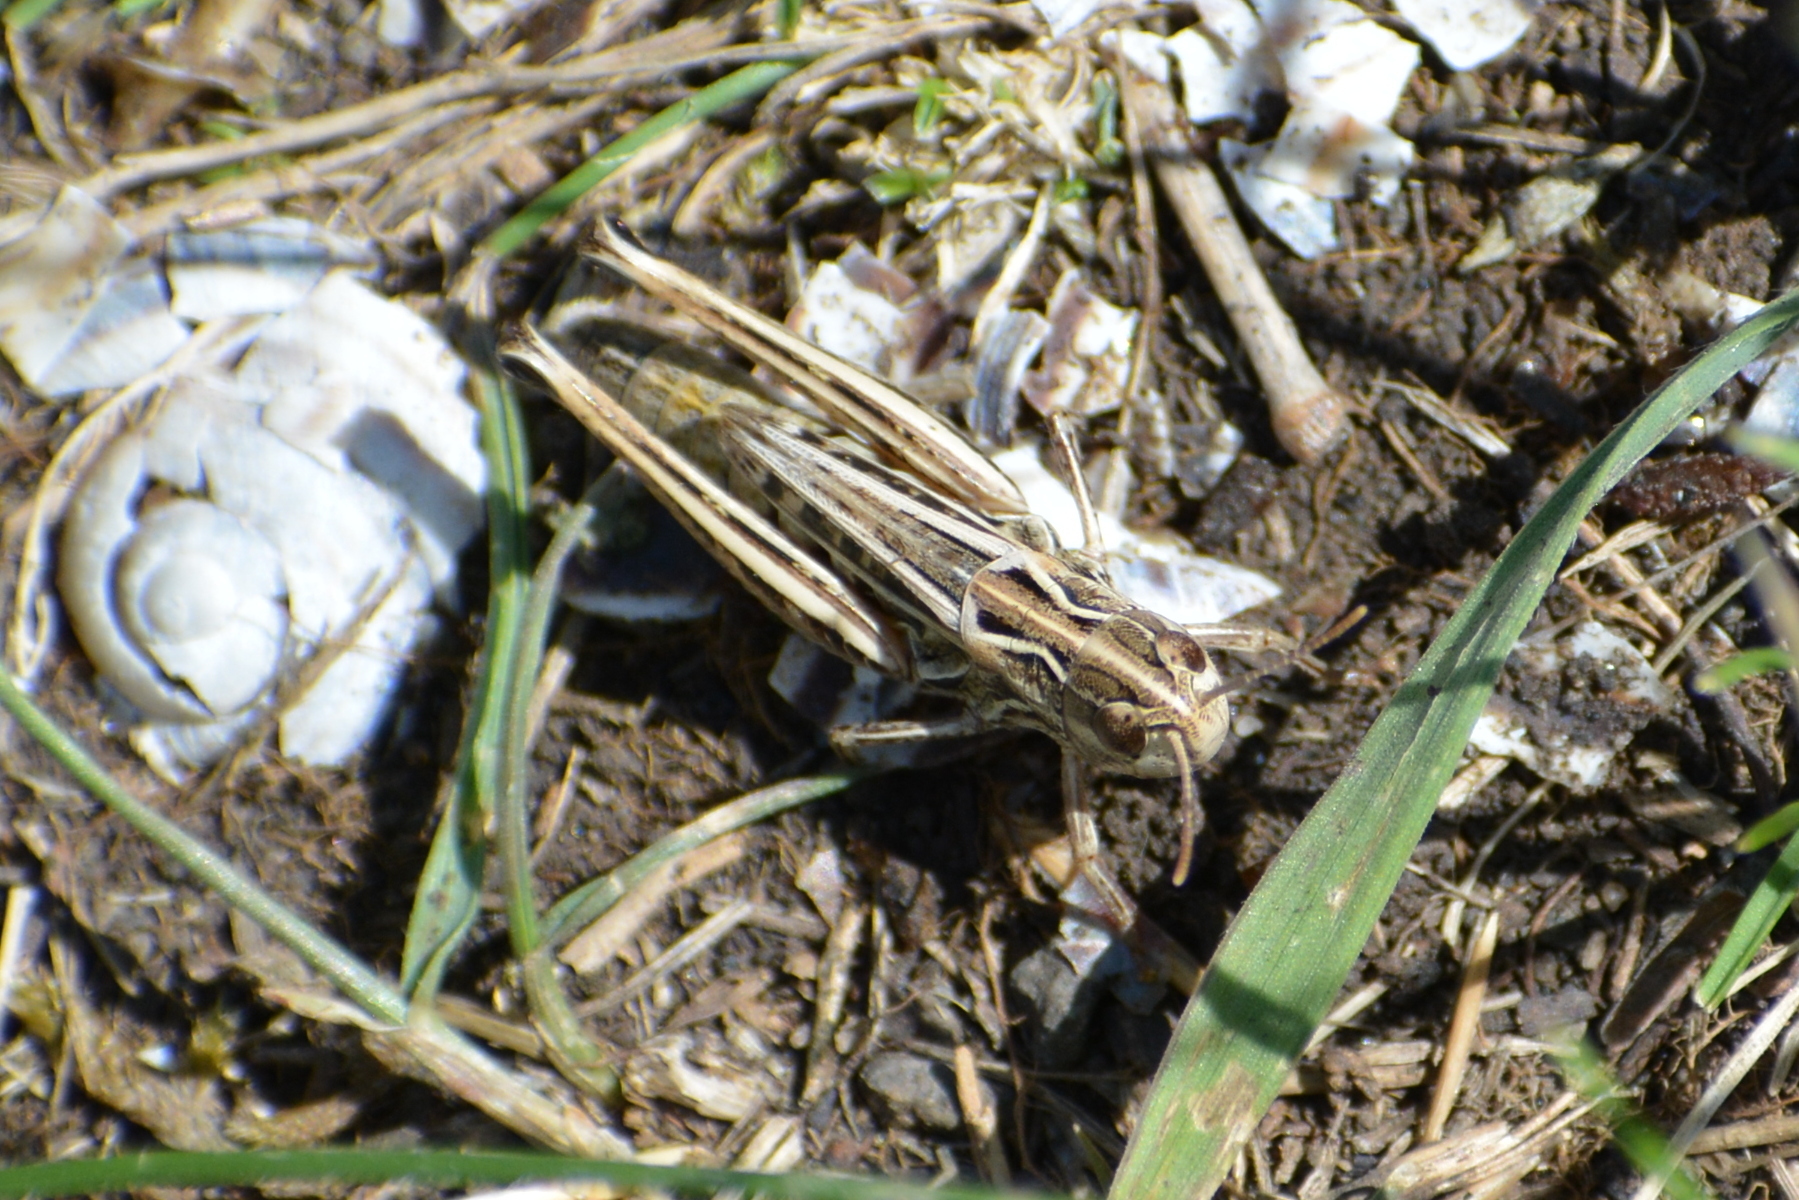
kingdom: Animalia
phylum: Arthropoda
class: Insecta
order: Orthoptera
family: Acrididae
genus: Stenobothrus
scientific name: Stenobothrus nigromaculatus
